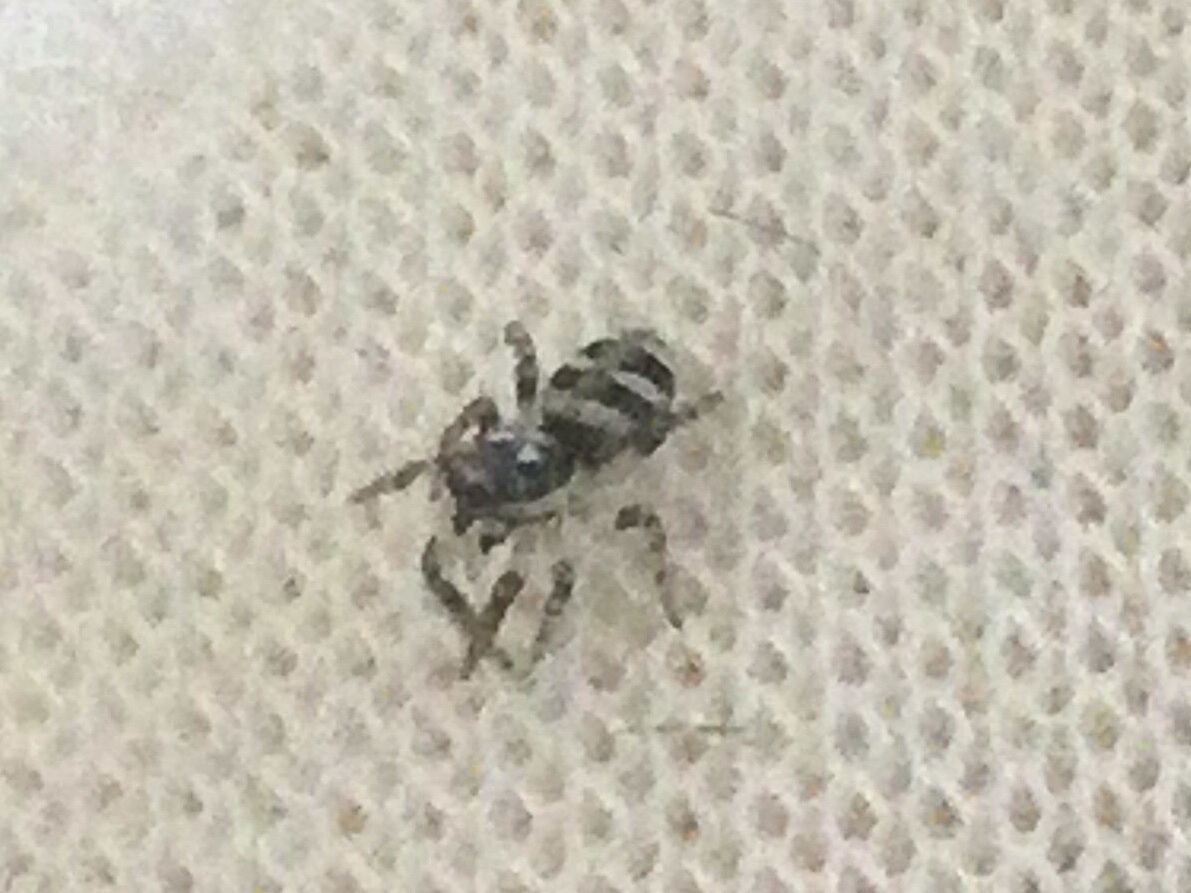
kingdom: Animalia
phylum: Arthropoda
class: Arachnida
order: Araneae
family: Salticidae
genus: Salticus
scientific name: Salticus scenicus
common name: Zebra jumper
